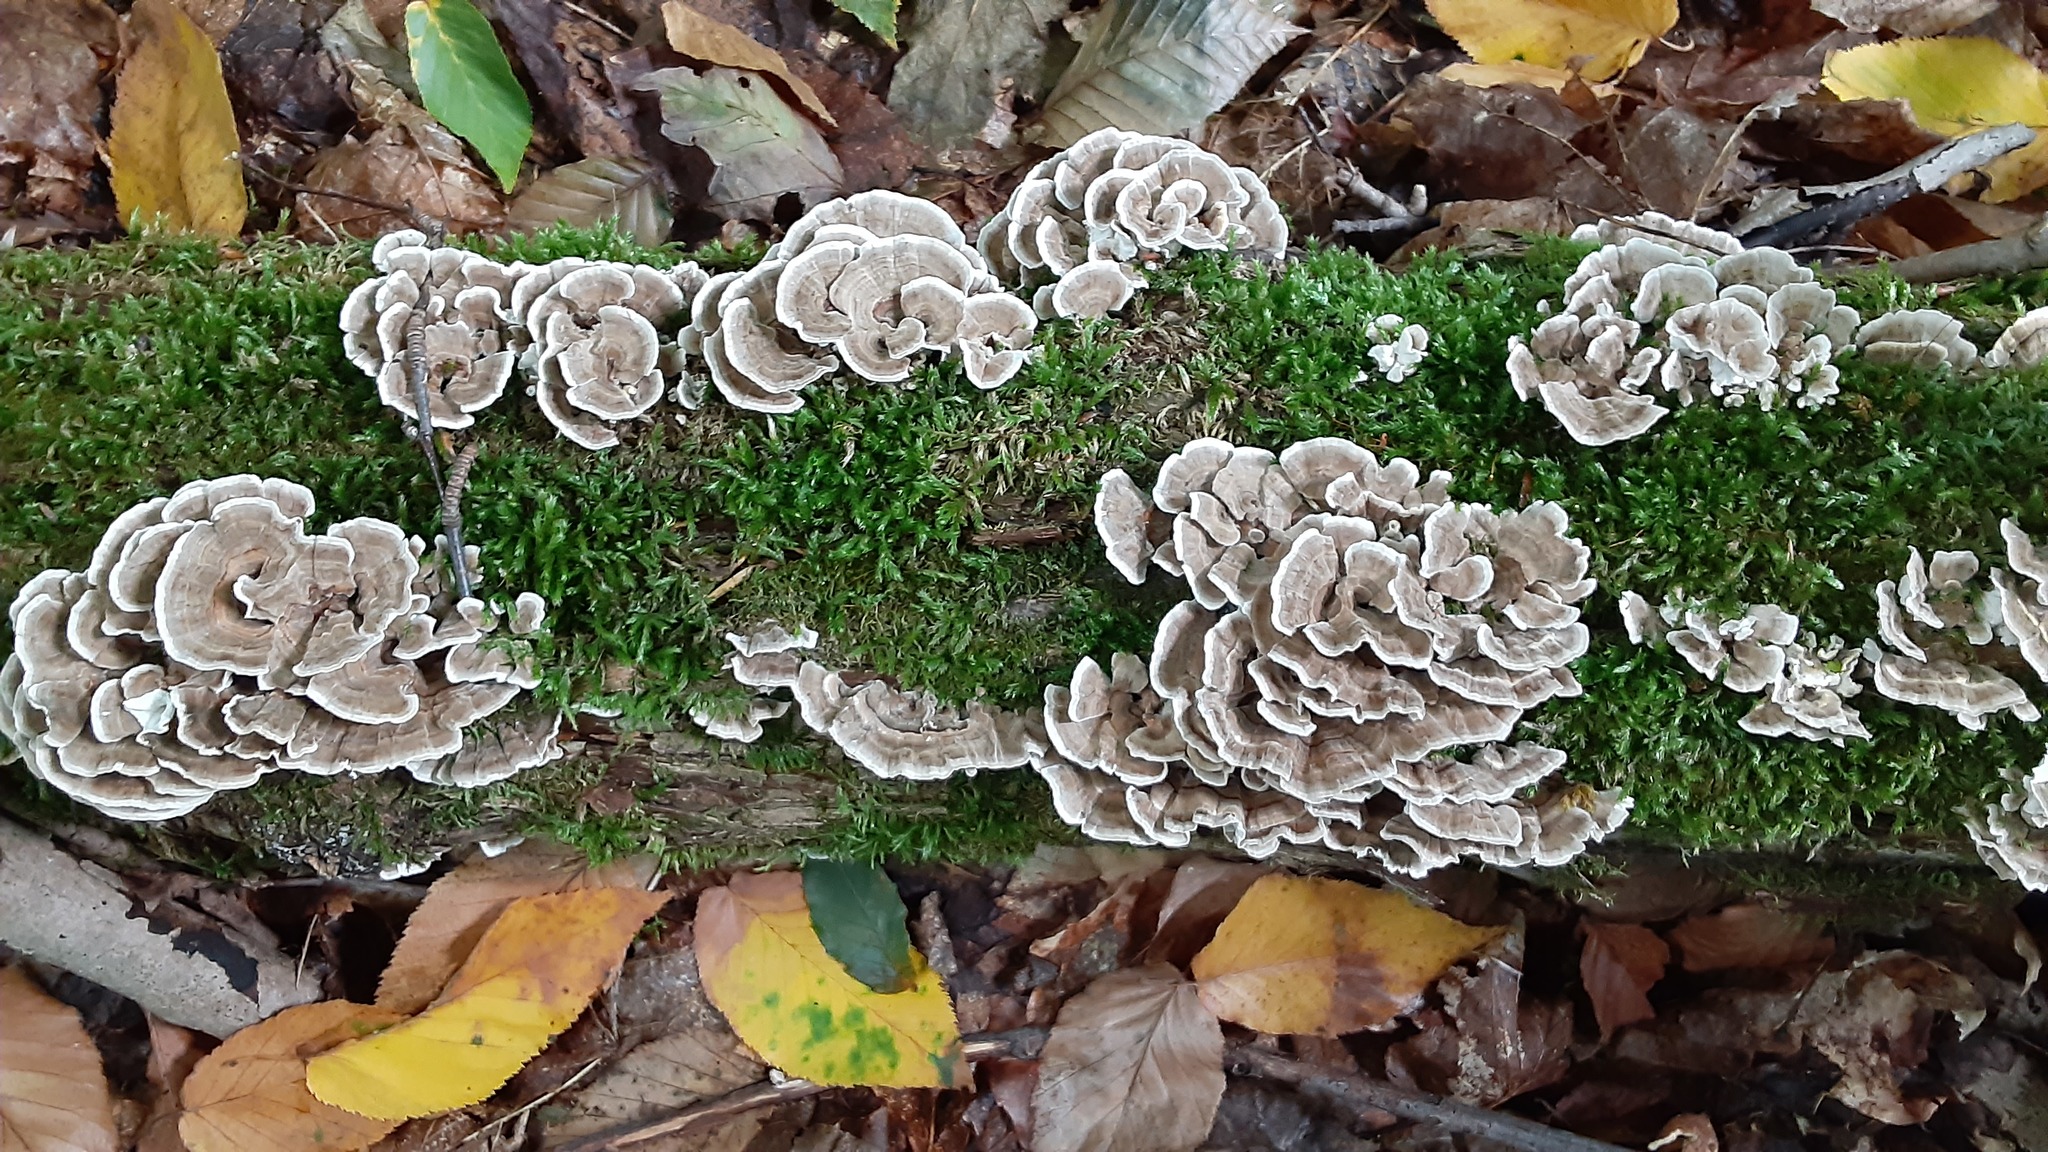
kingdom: Fungi
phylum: Basidiomycota
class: Agaricomycetes
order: Polyporales
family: Polyporaceae
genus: Trametes
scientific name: Trametes versicolor
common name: Turkeytail
